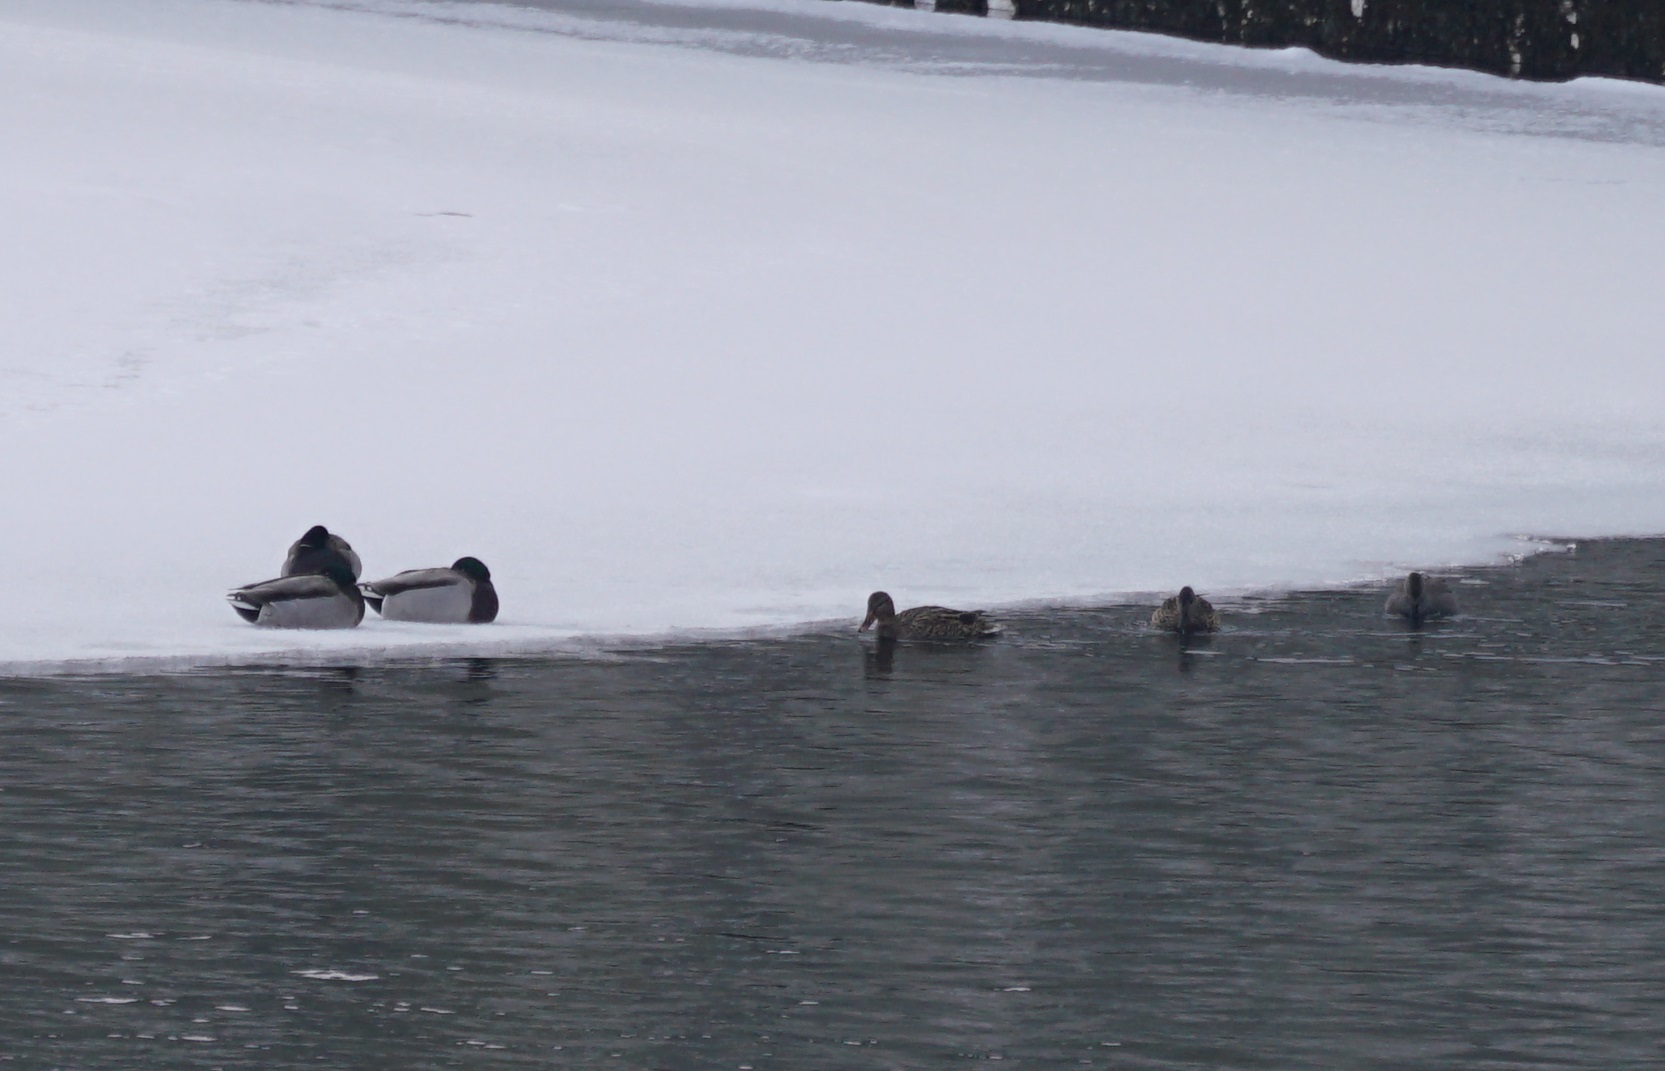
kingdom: Animalia
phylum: Chordata
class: Aves
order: Anseriformes
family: Anatidae
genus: Anas
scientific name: Anas platyrhynchos
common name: Mallard
